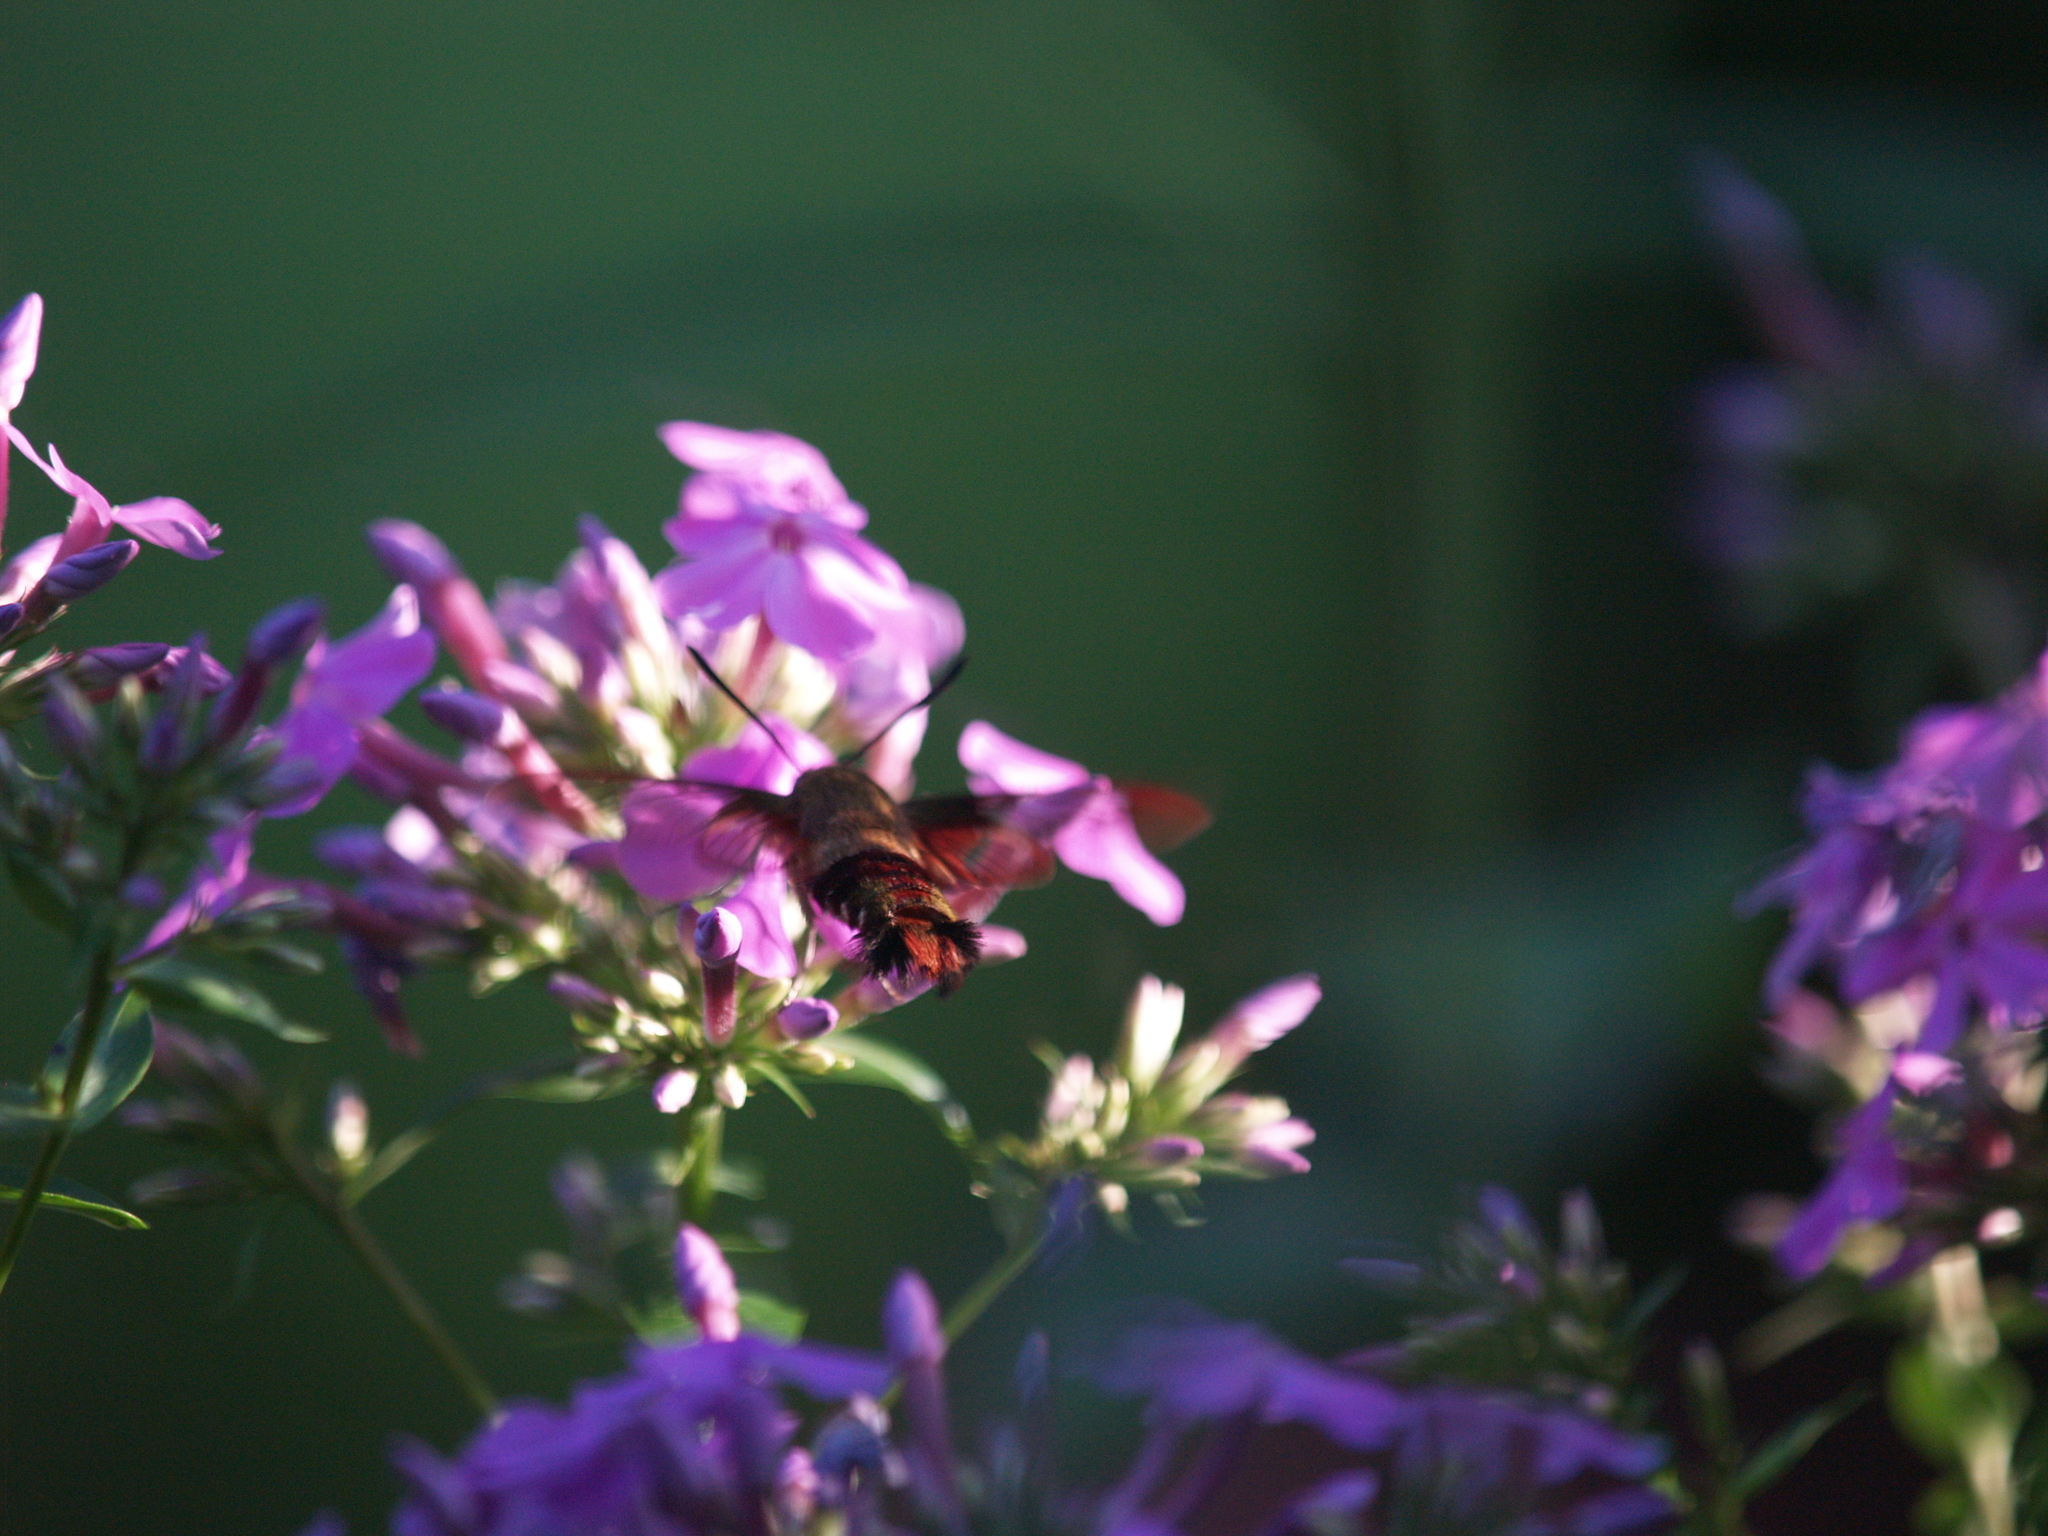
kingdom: Animalia
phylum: Arthropoda
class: Insecta
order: Lepidoptera
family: Sphingidae
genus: Hemaris
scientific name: Hemaris thysbe
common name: Common clear-wing
